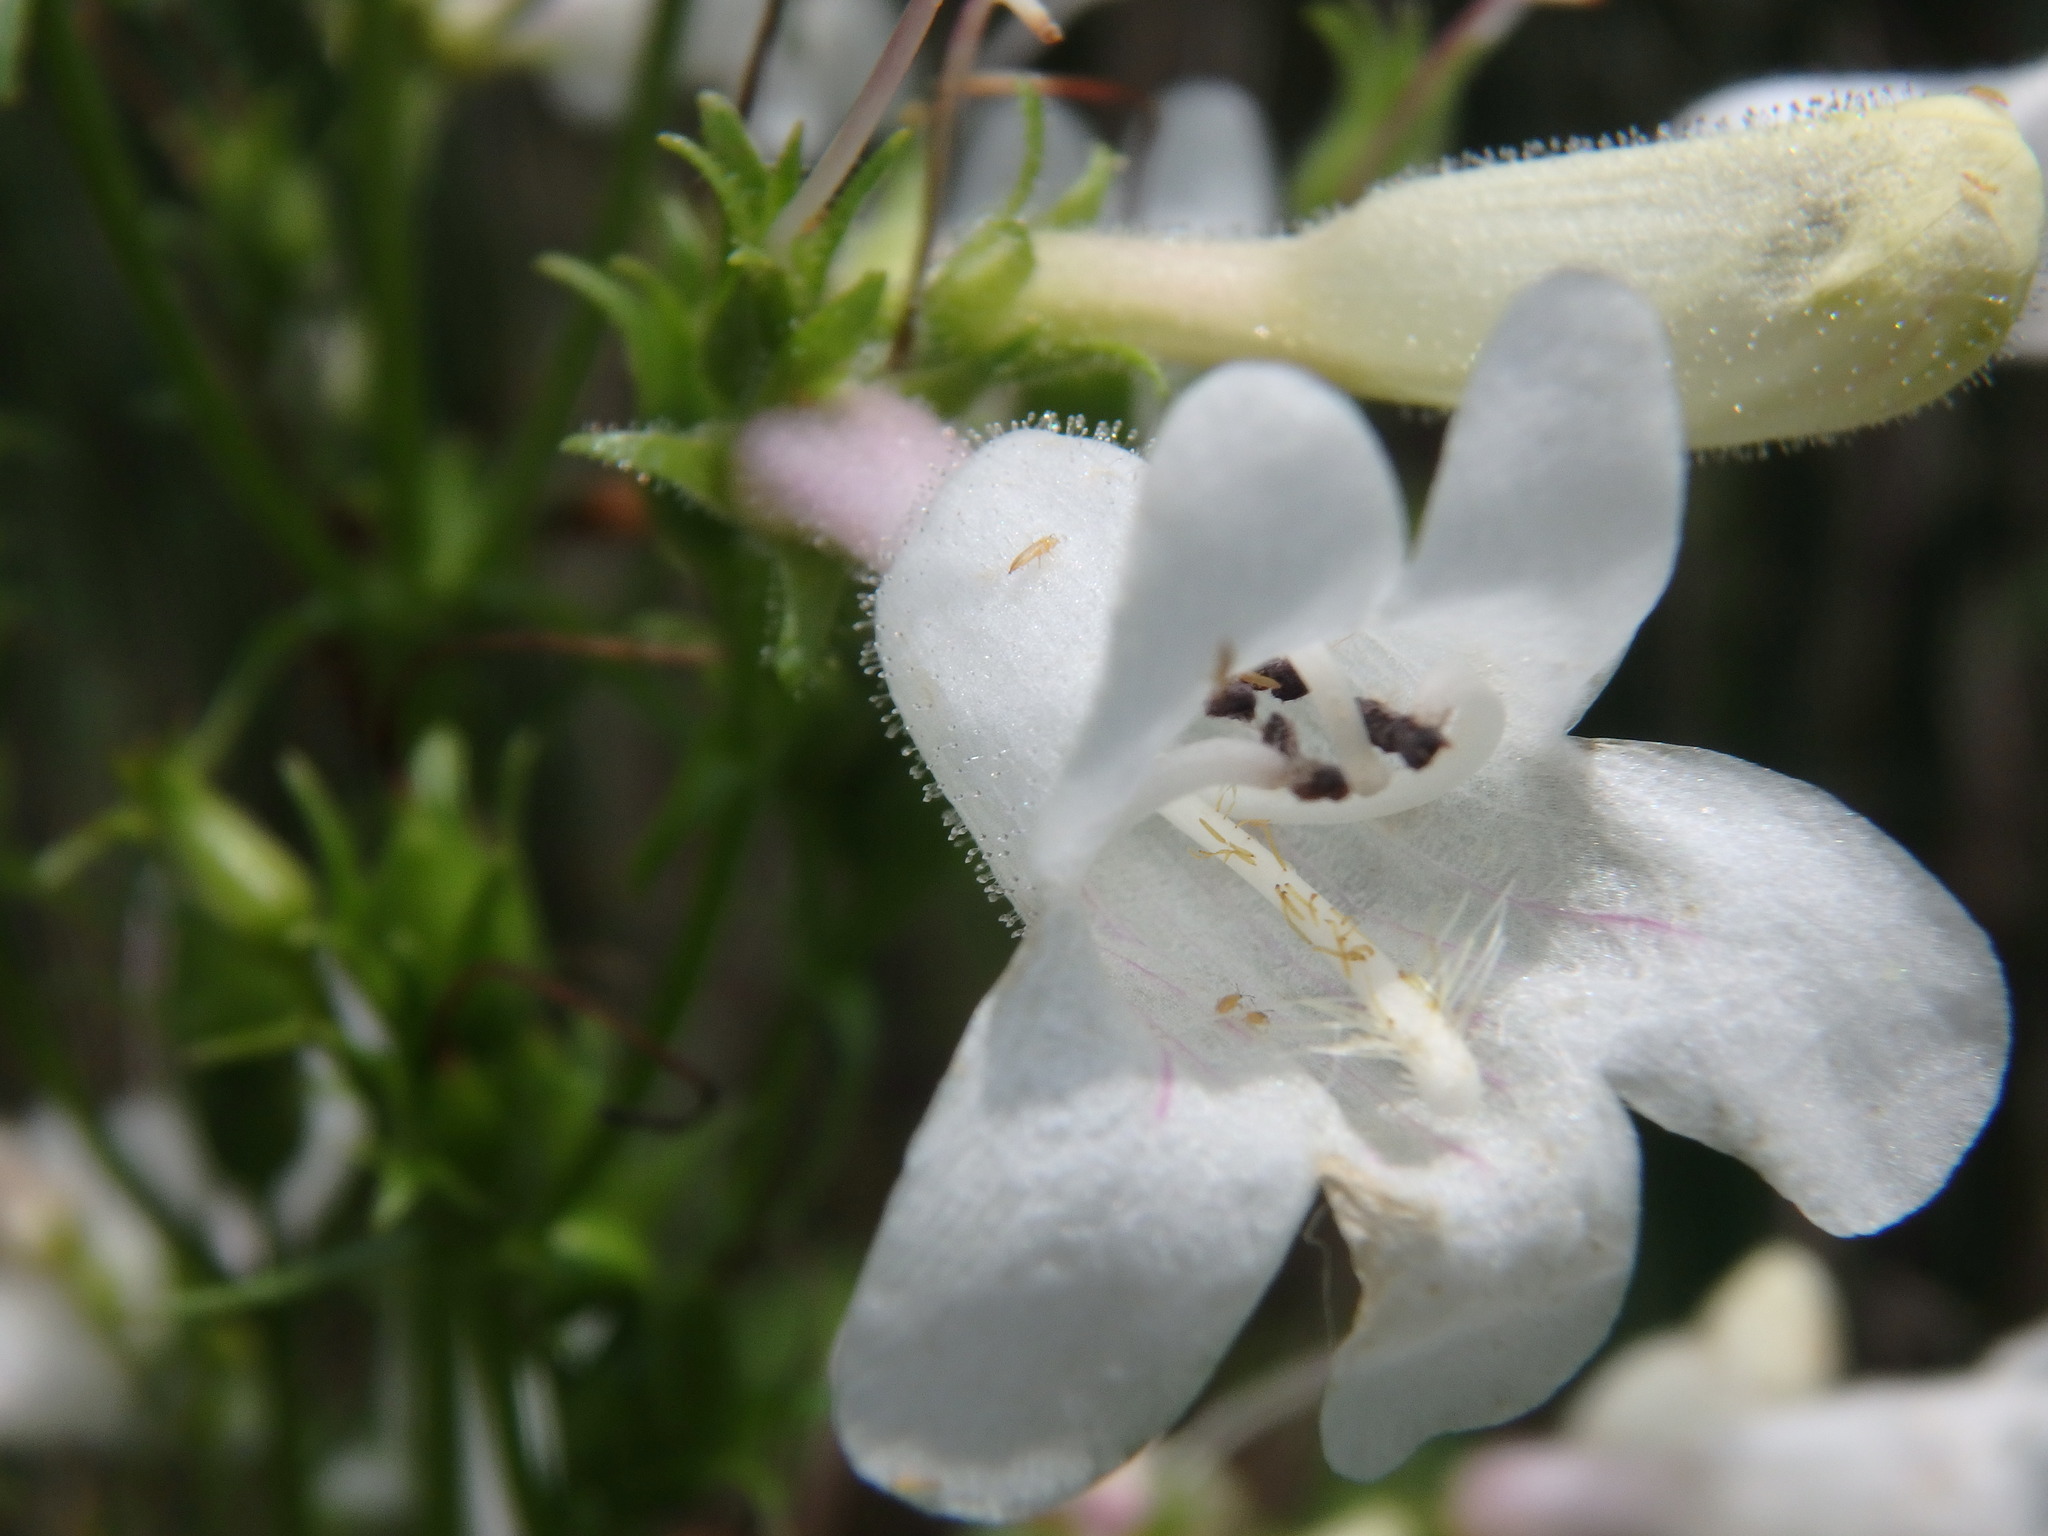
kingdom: Plantae
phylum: Tracheophyta
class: Magnoliopsida
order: Lamiales
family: Plantaginaceae
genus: Penstemon
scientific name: Penstemon digitalis
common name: Foxglove beardtongue
